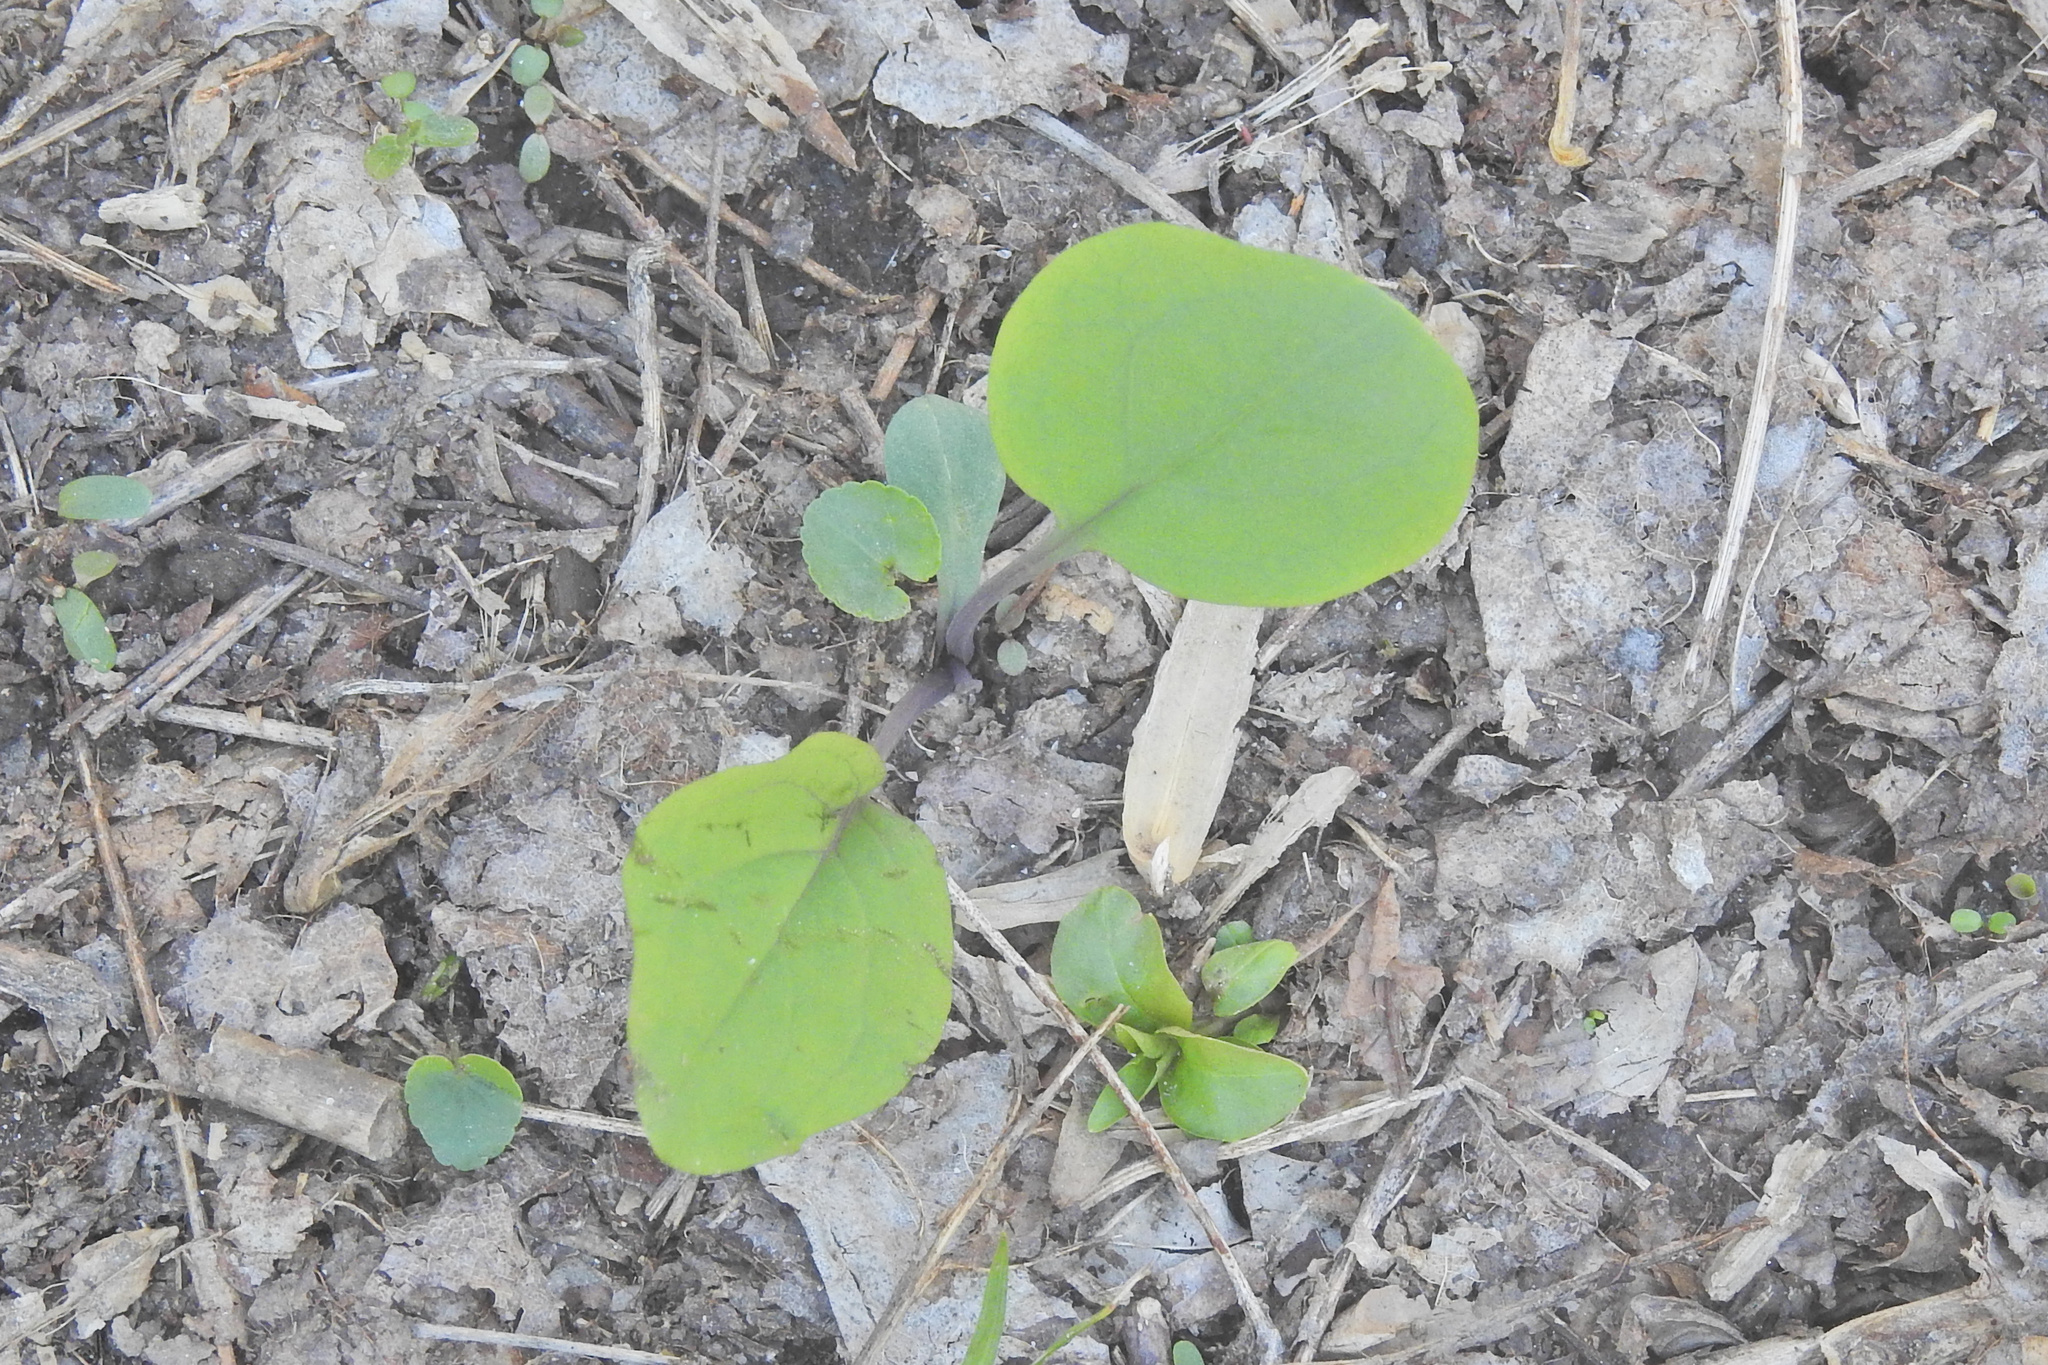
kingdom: Plantae
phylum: Tracheophyta
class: Magnoliopsida
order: Boraginales
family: Boraginaceae
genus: Mertensia
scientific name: Mertensia virginica
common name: Virginia bluebells
